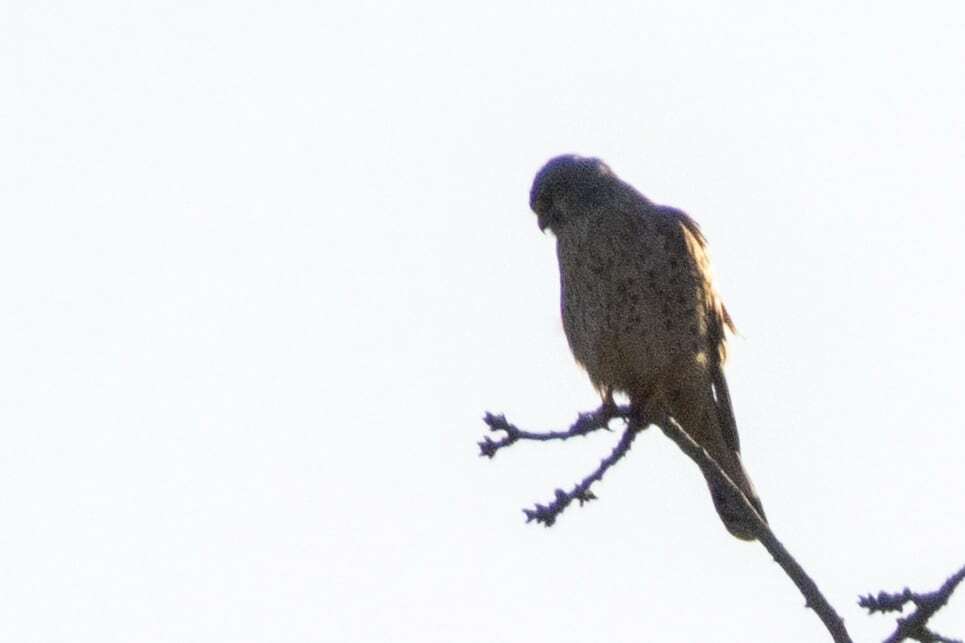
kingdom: Animalia
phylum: Chordata
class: Aves
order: Falconiformes
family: Falconidae
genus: Falco
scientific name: Falco tinnunculus
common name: Common kestrel
